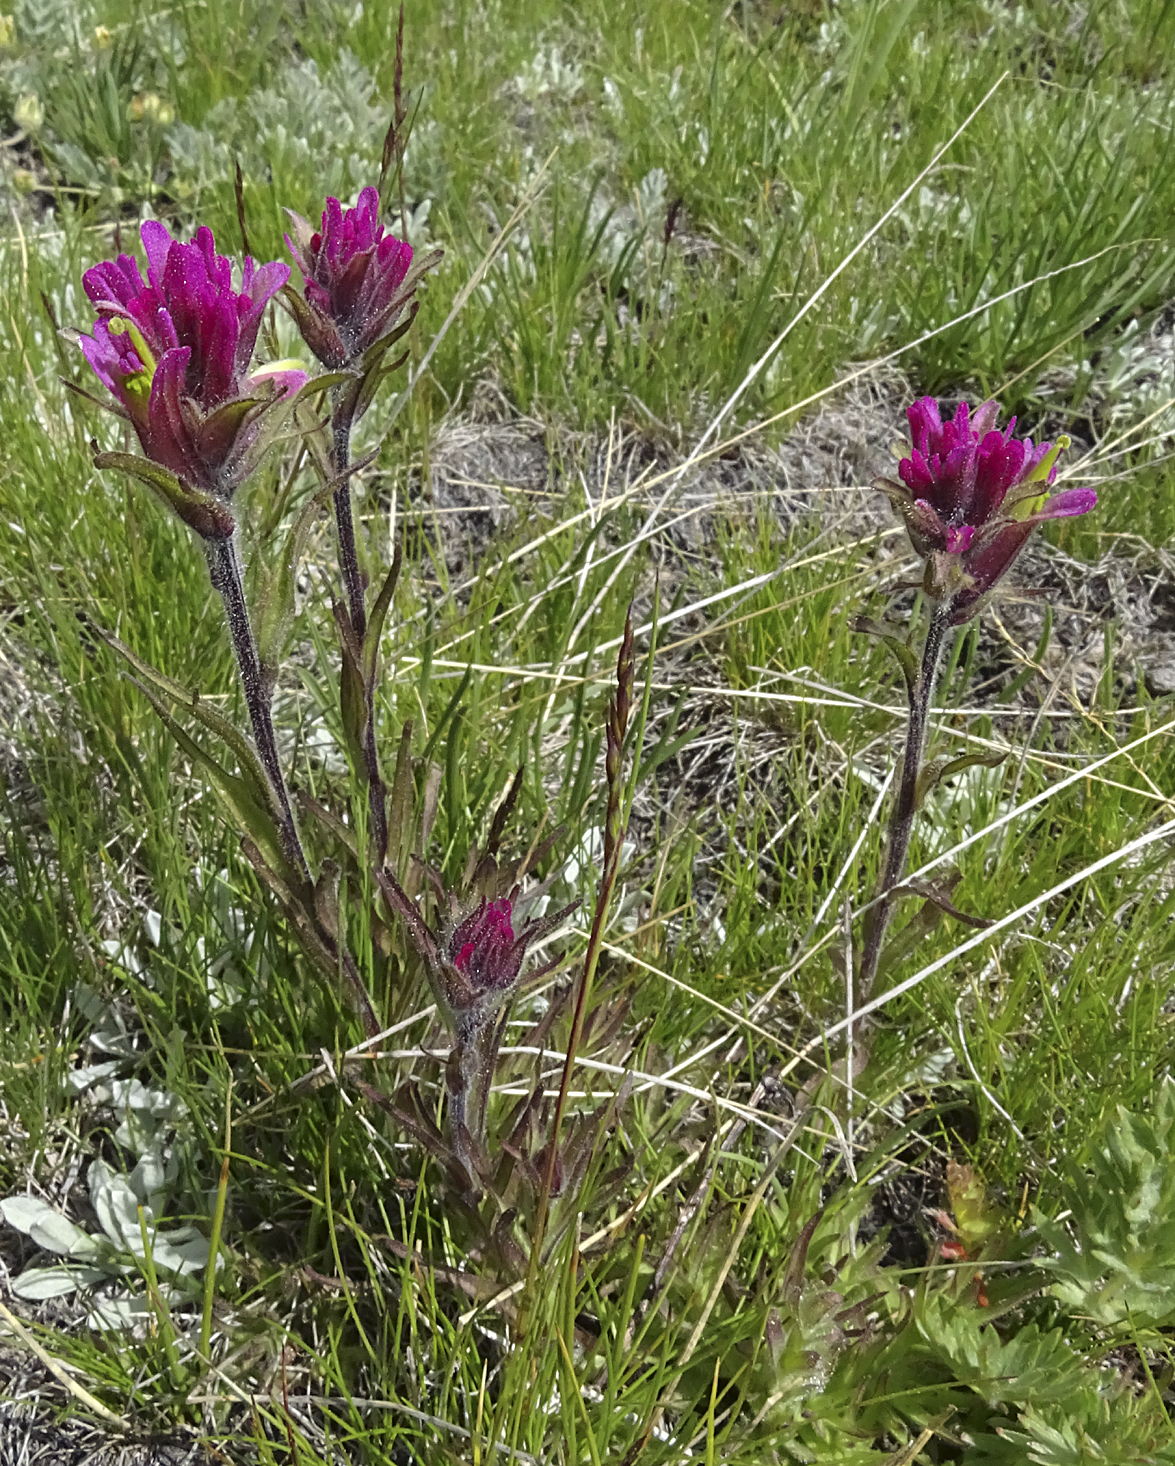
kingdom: Plantae
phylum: Tracheophyta
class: Magnoliopsida
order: Lamiales
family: Orobanchaceae
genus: Castilleja
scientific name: Castilleja lemmonii
